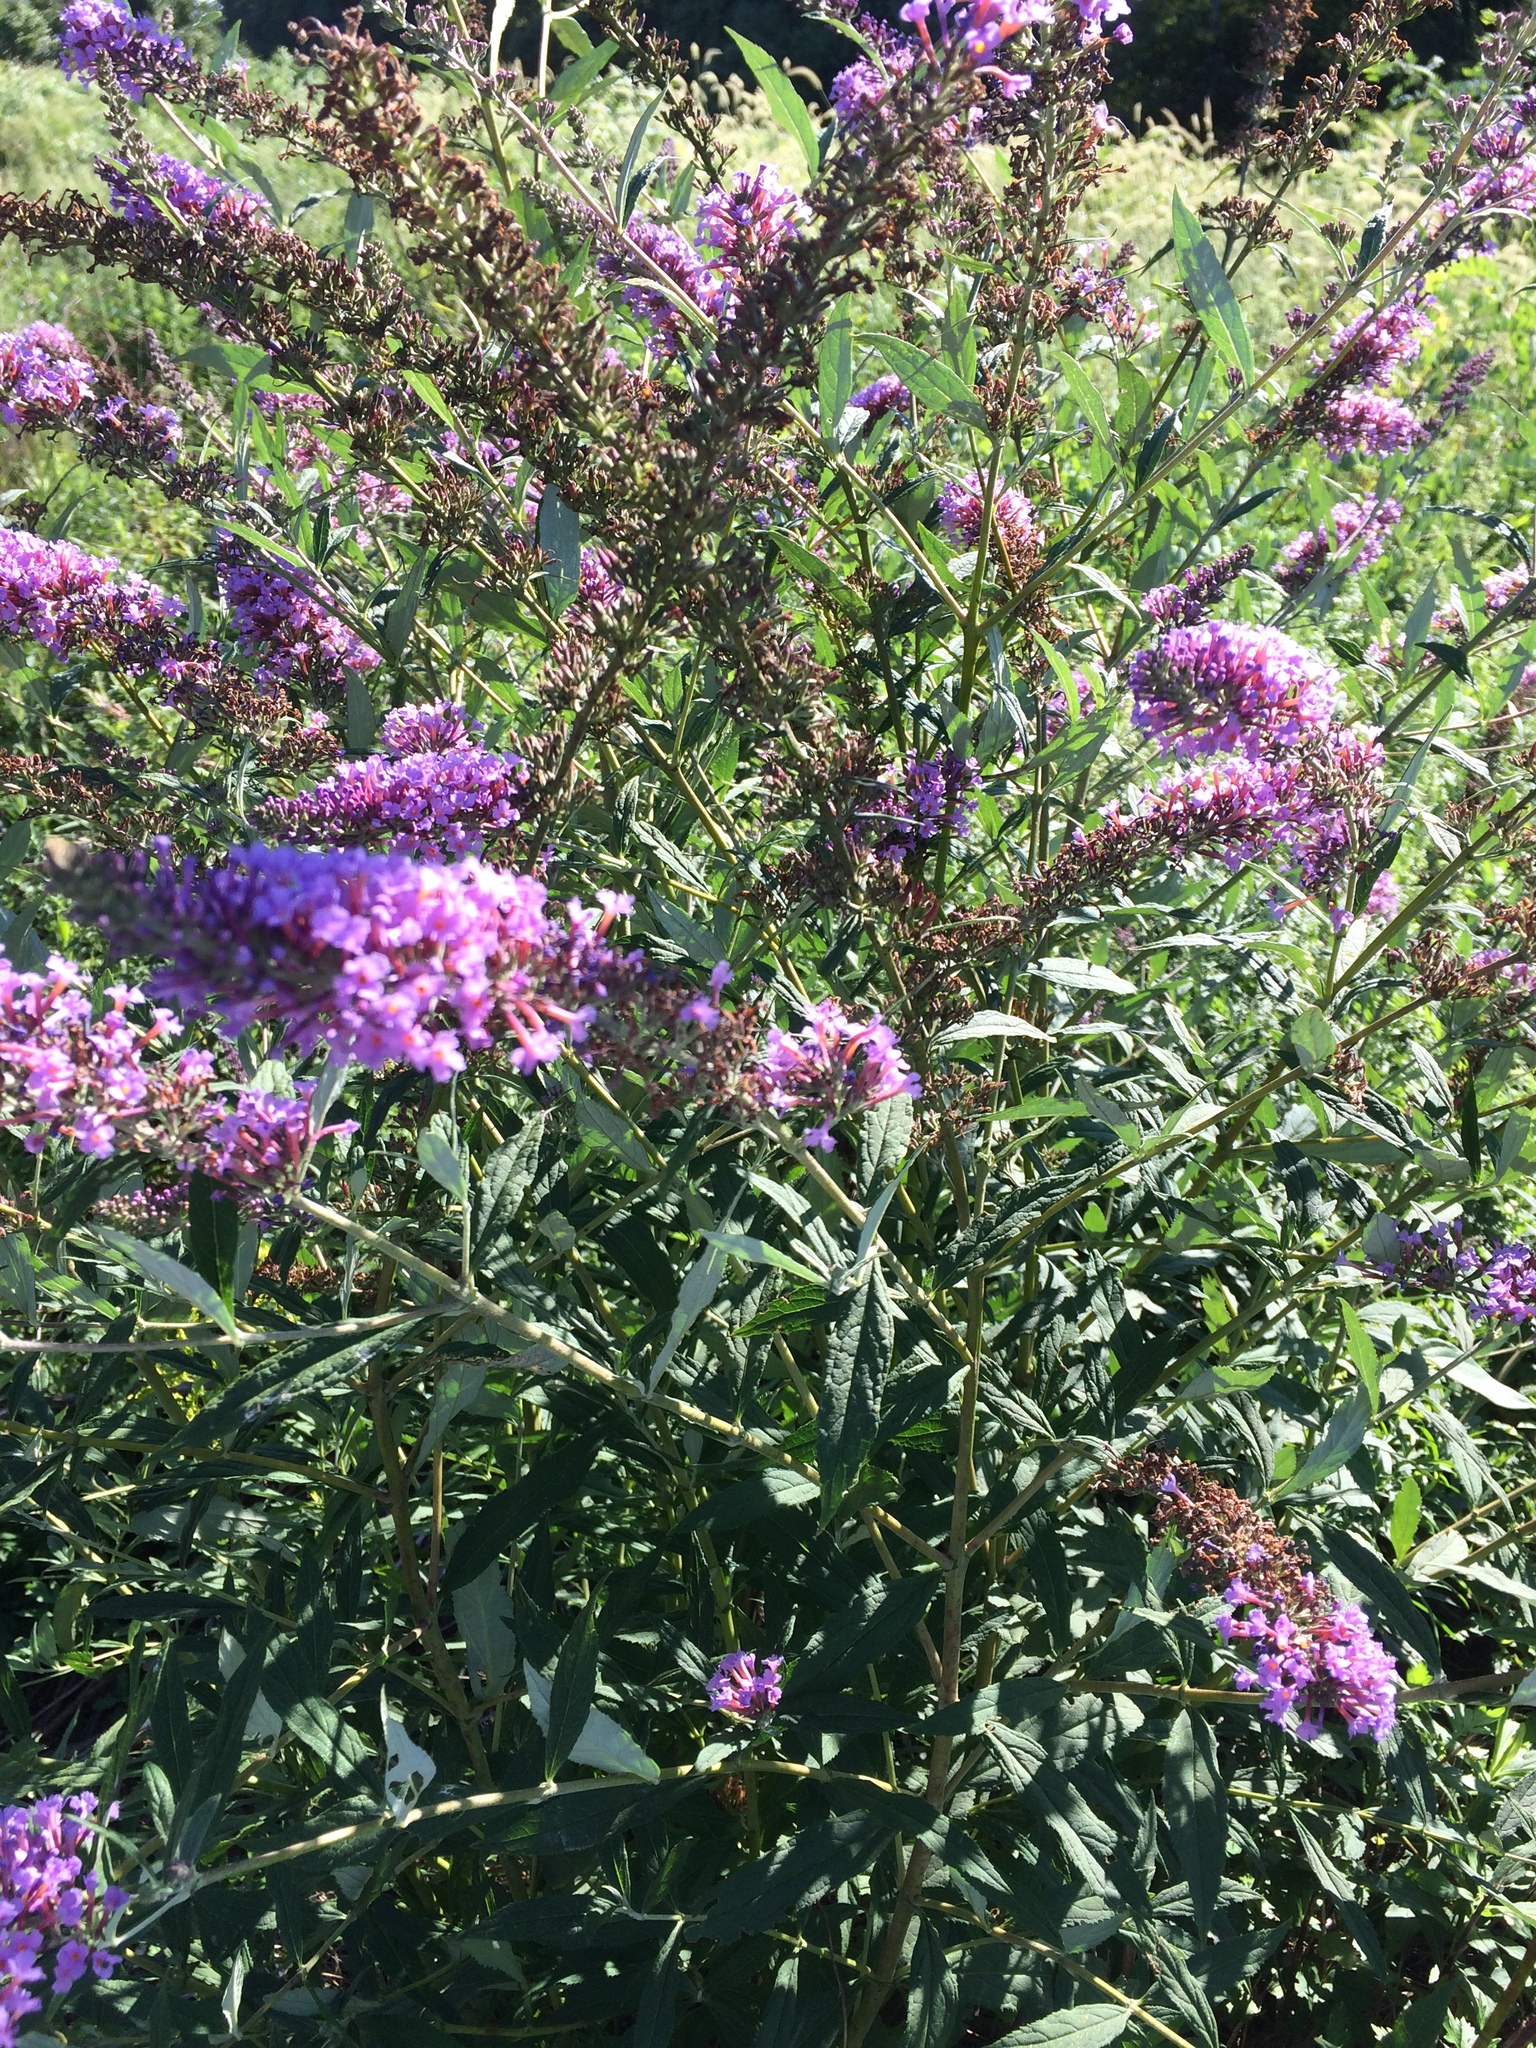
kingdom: Plantae
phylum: Tracheophyta
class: Magnoliopsida
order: Lamiales
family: Scrophulariaceae
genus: Buddleja
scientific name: Buddleja davidii
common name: Butterfly-bush
